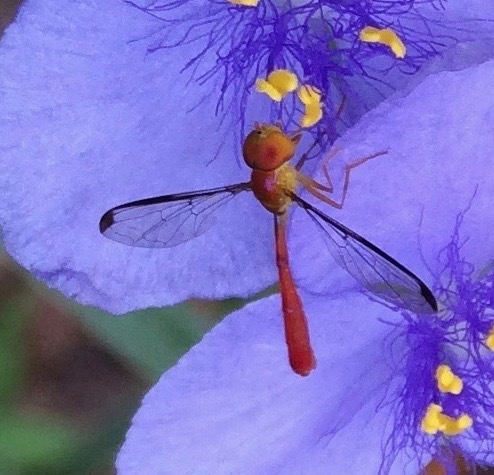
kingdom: Animalia
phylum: Arthropoda
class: Insecta
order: Diptera
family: Syrphidae
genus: Victoriana
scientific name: Victoriana parvicornis
